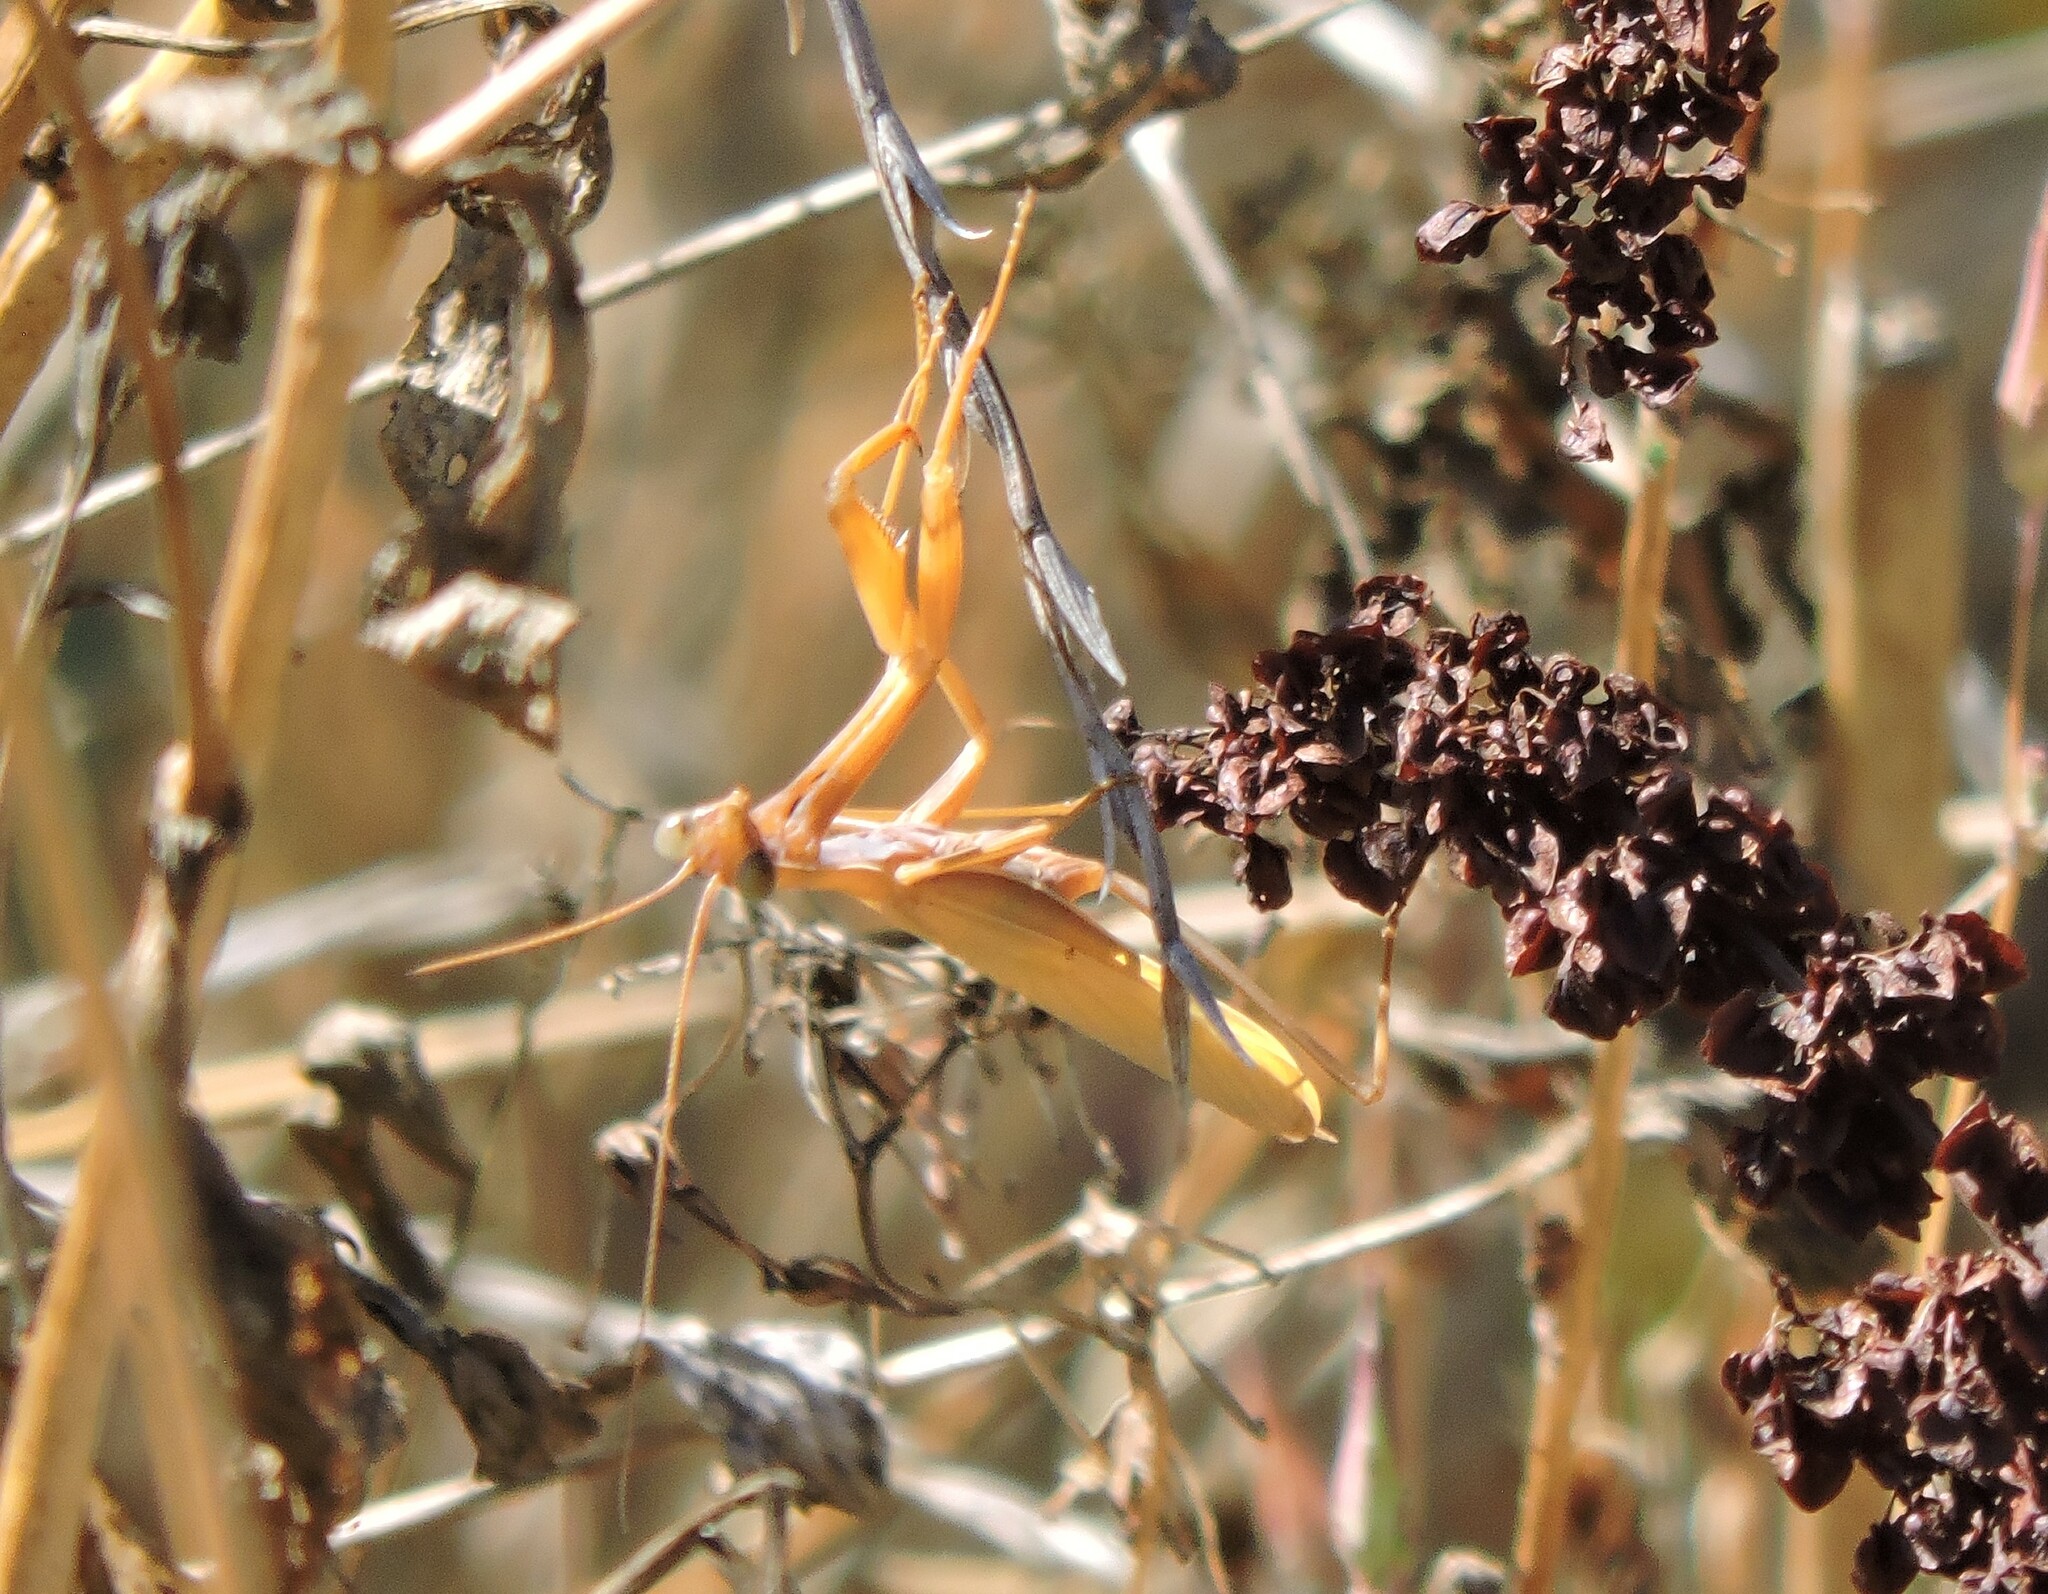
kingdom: Animalia
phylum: Arthropoda
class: Insecta
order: Mantodea
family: Mantidae
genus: Mantis
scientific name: Mantis religiosa
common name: Praying mantis
